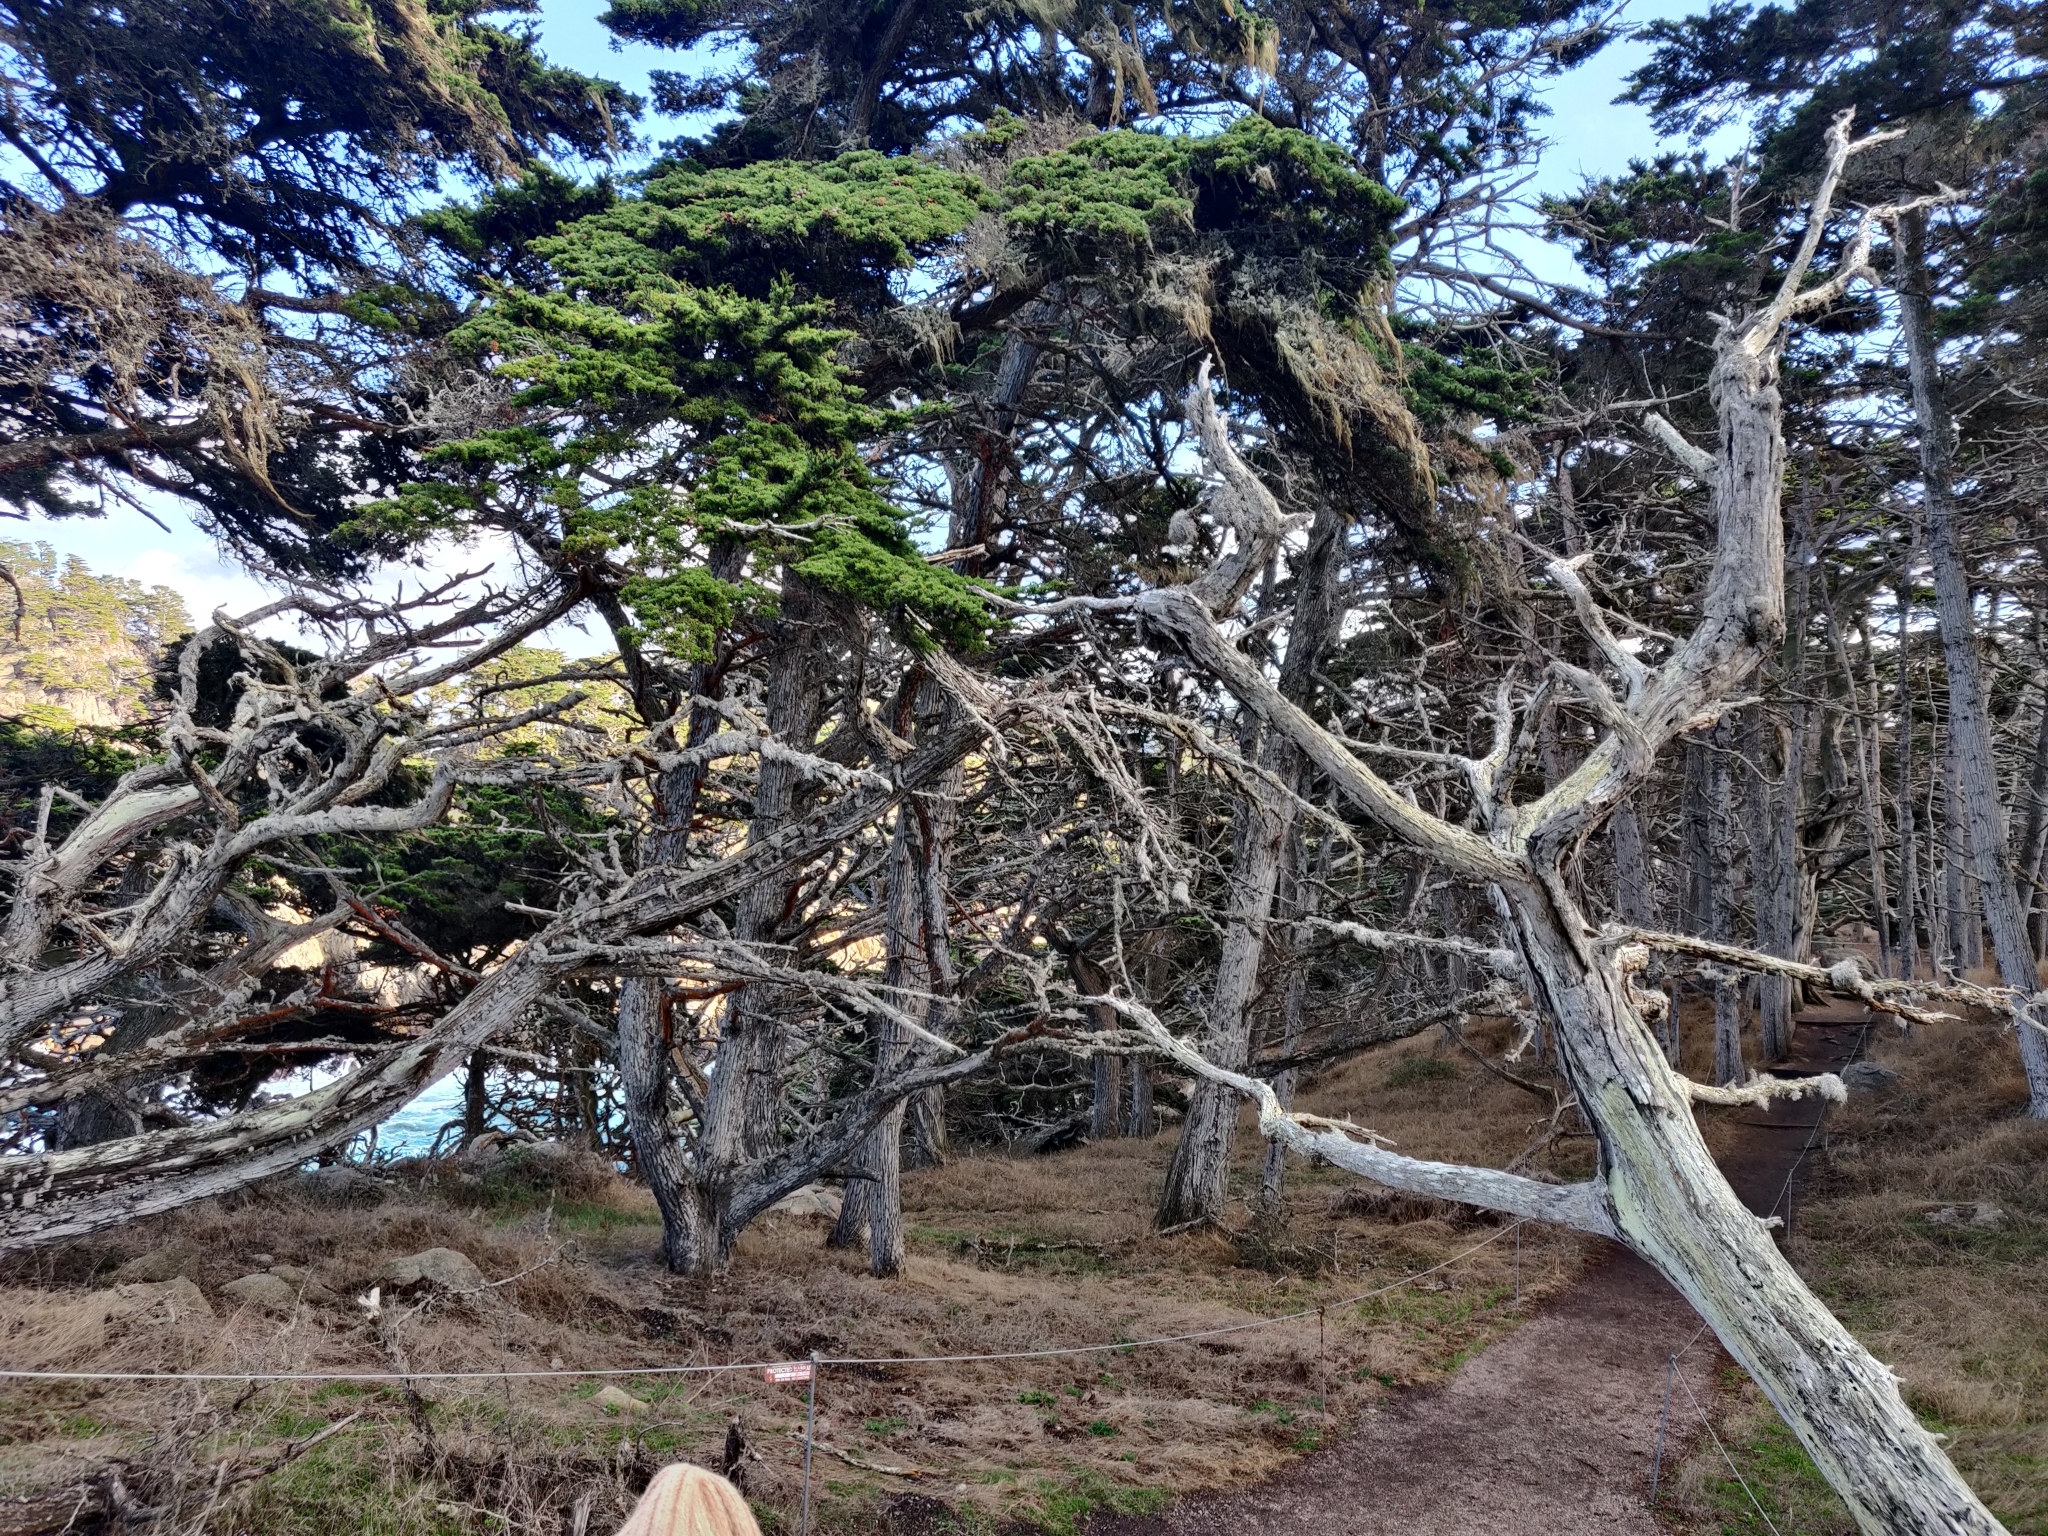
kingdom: Plantae
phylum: Tracheophyta
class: Pinopsida
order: Pinales
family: Cupressaceae
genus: Cupressus
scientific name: Cupressus macrocarpa
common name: Monterey cypress
